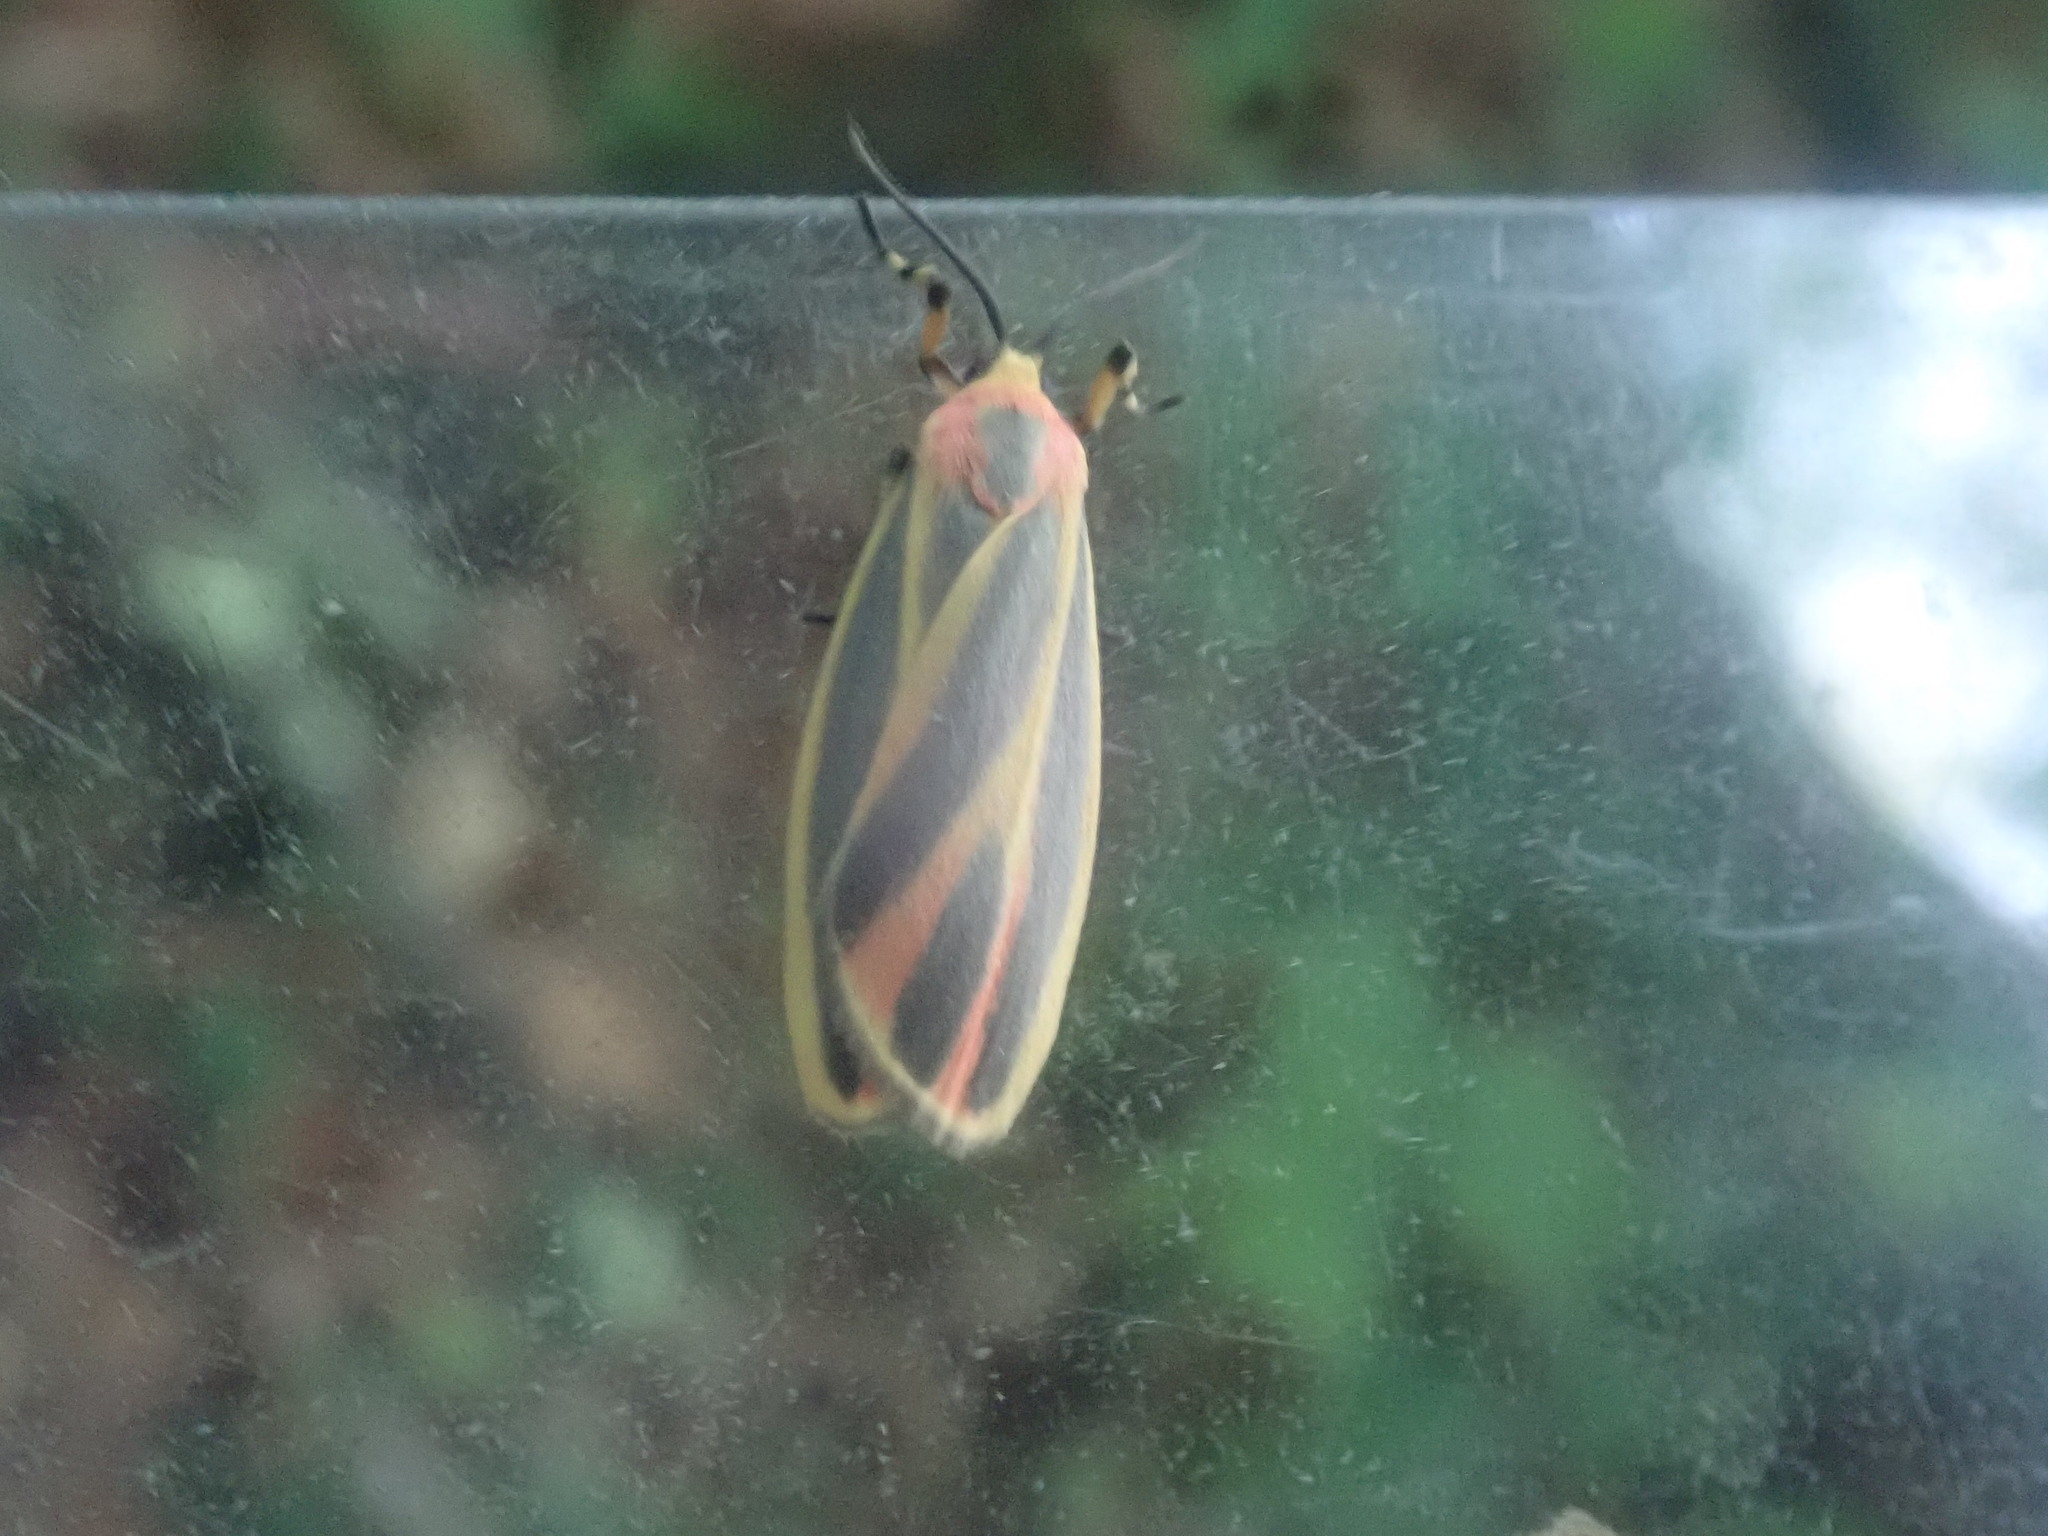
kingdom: Animalia
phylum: Arthropoda
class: Insecta
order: Lepidoptera
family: Erebidae
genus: Hypoprepia
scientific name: Hypoprepia fucosa
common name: Painted lichen moth
